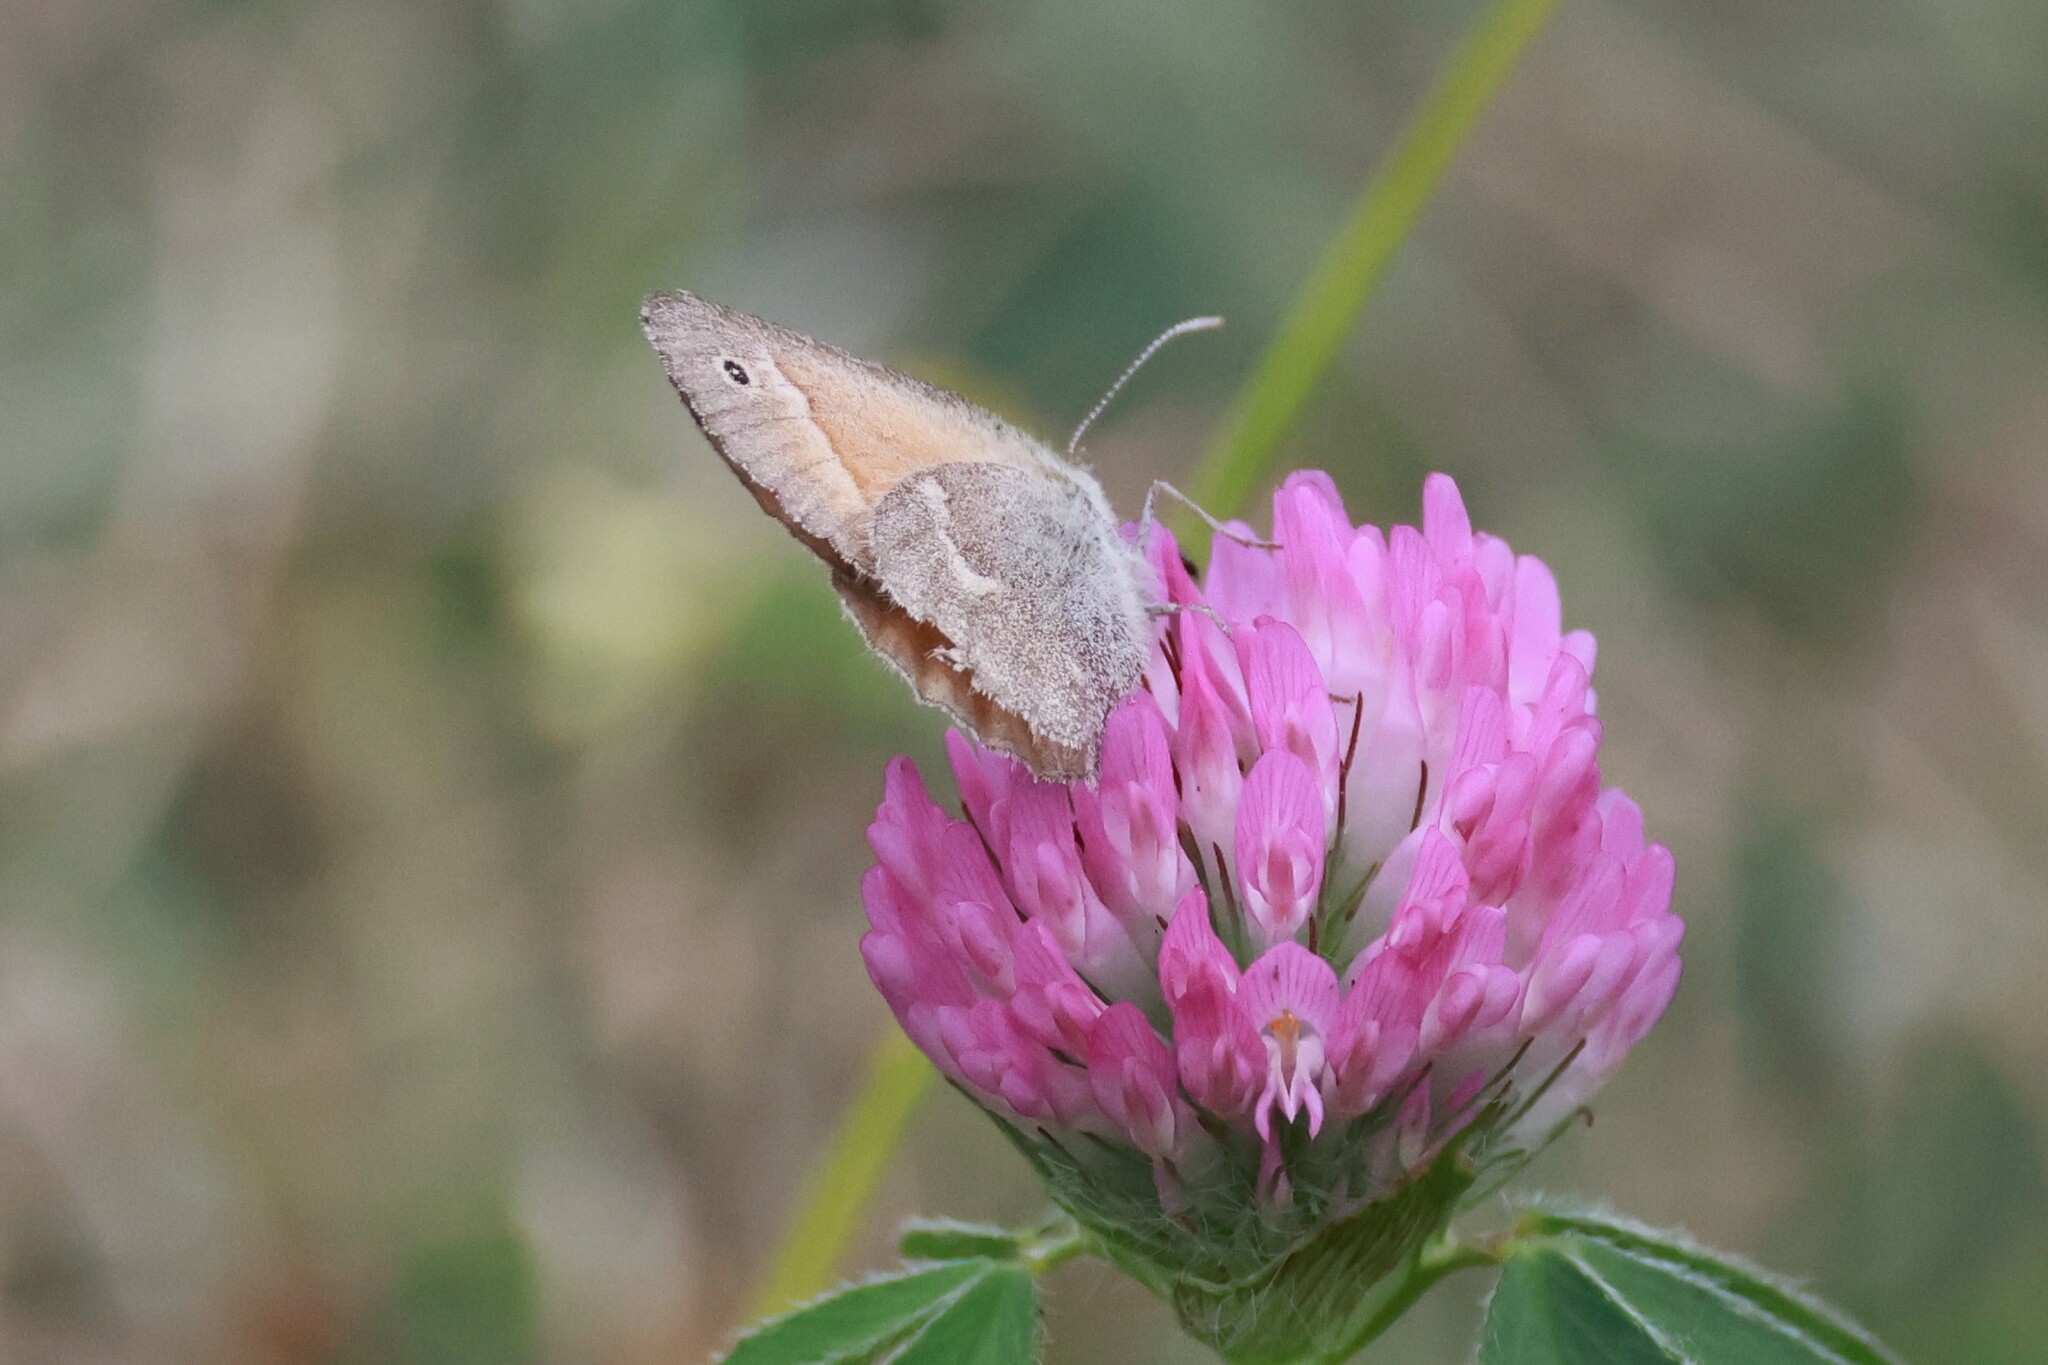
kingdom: Animalia
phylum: Arthropoda
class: Insecta
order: Lepidoptera
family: Nymphalidae
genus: Coenonympha
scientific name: Coenonympha california
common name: Common ringlet
